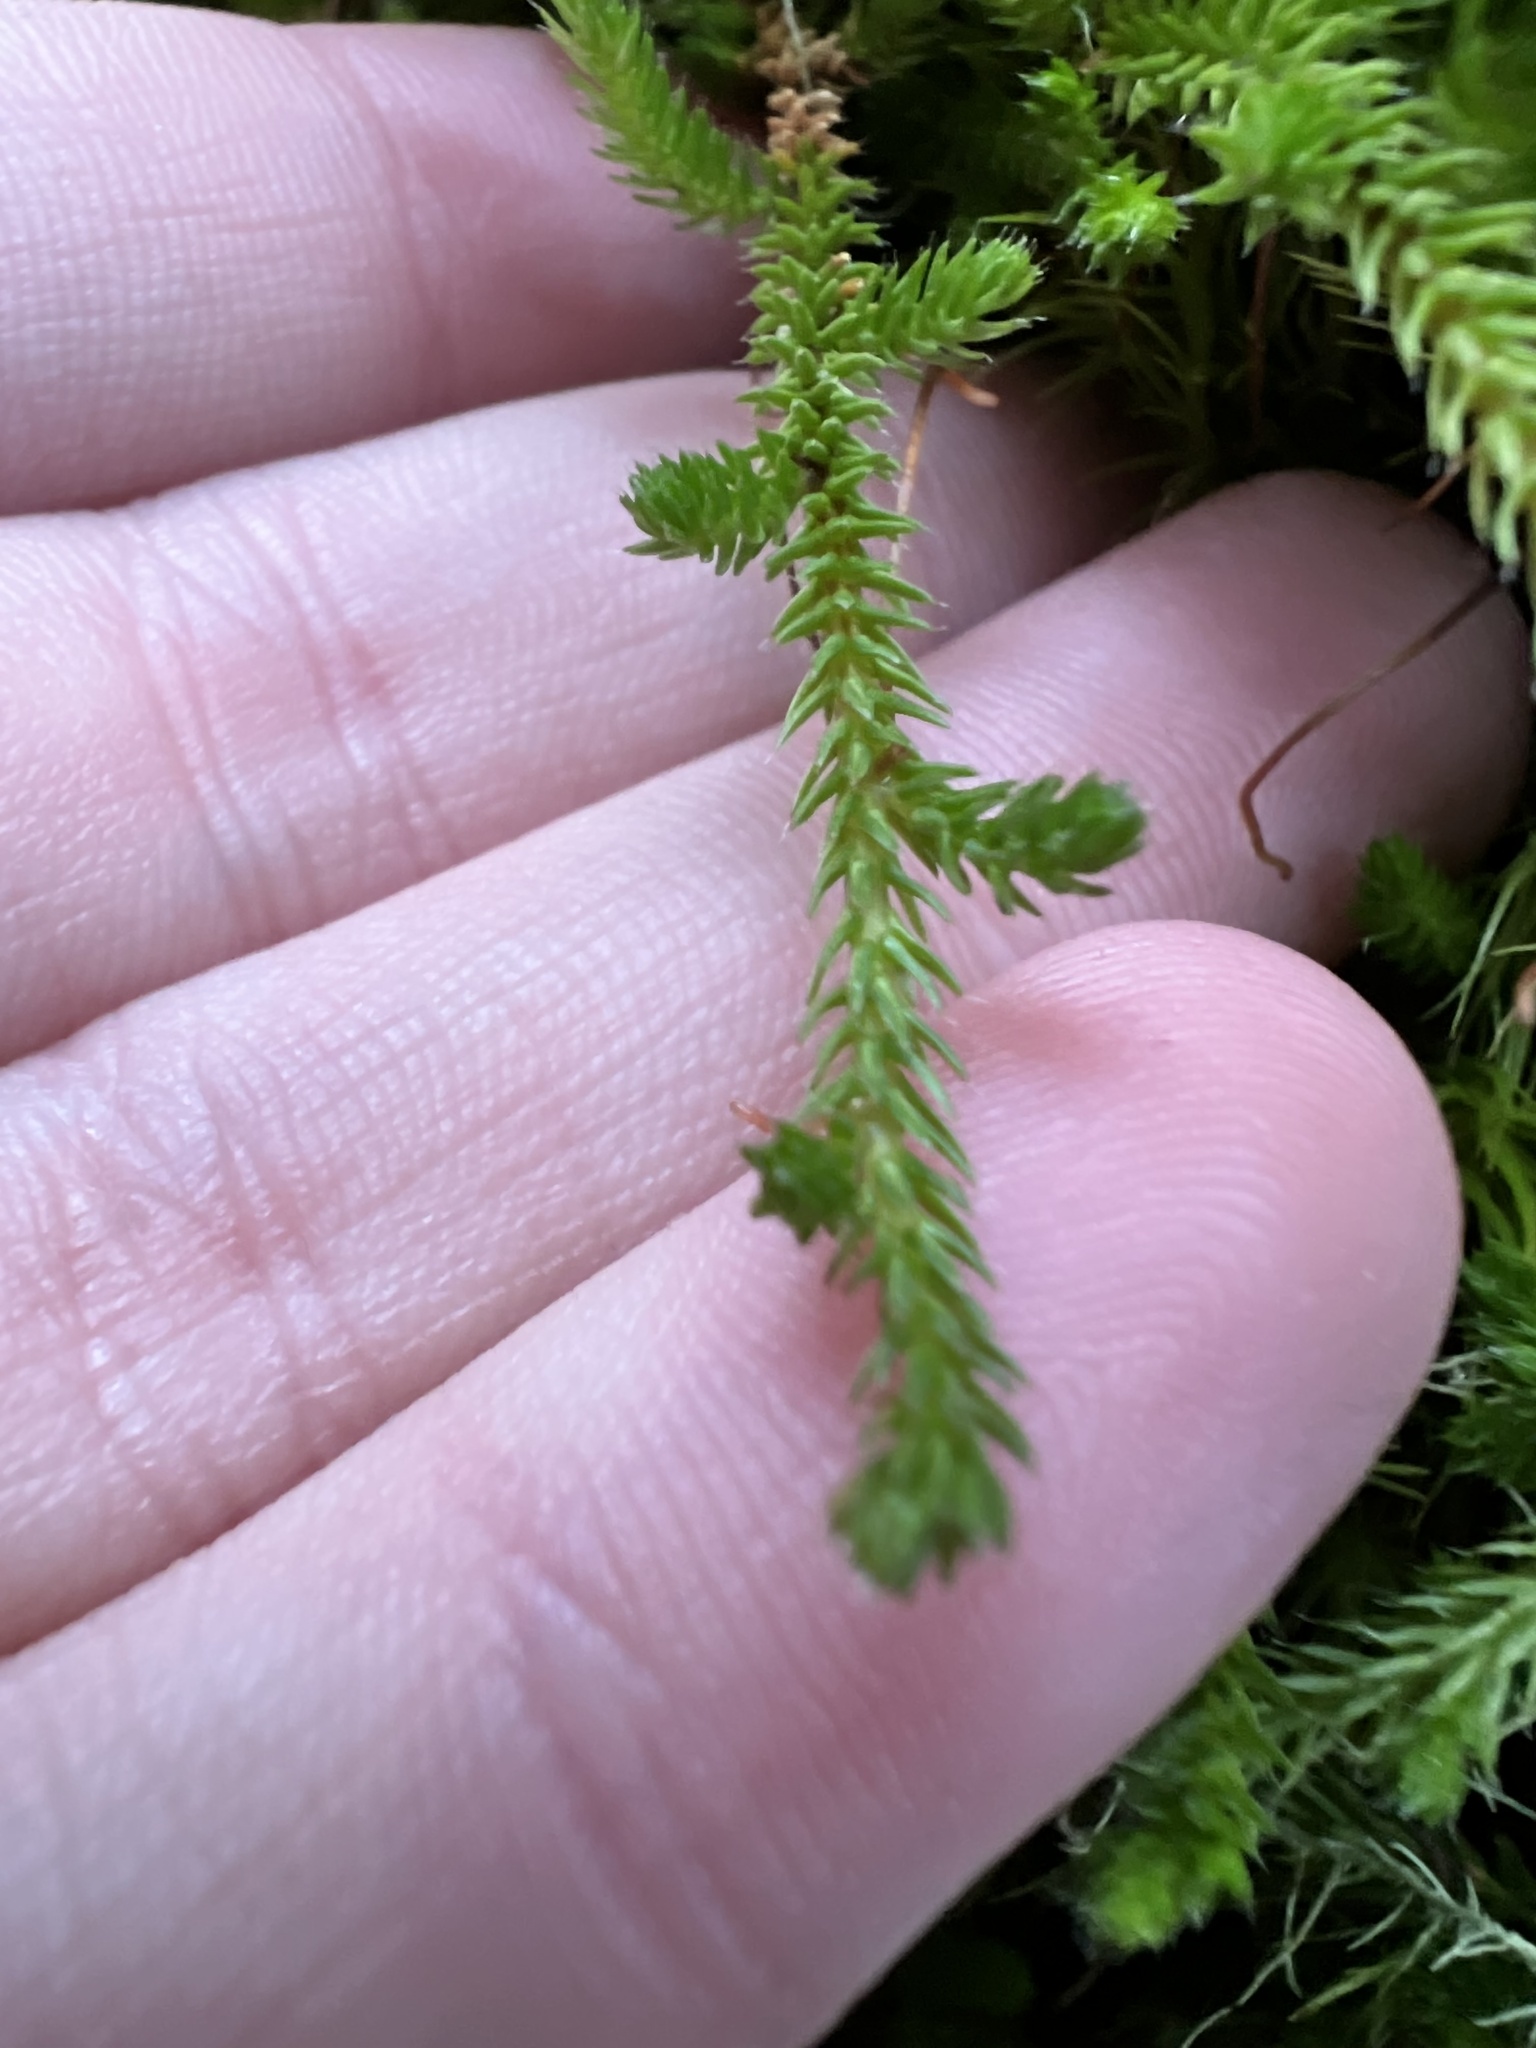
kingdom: Plantae
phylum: Tracheophyta
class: Lycopodiopsida
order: Selaginellales
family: Selaginellaceae
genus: Selaginella
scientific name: Selaginella wallacei
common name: Wallace's selaginella
